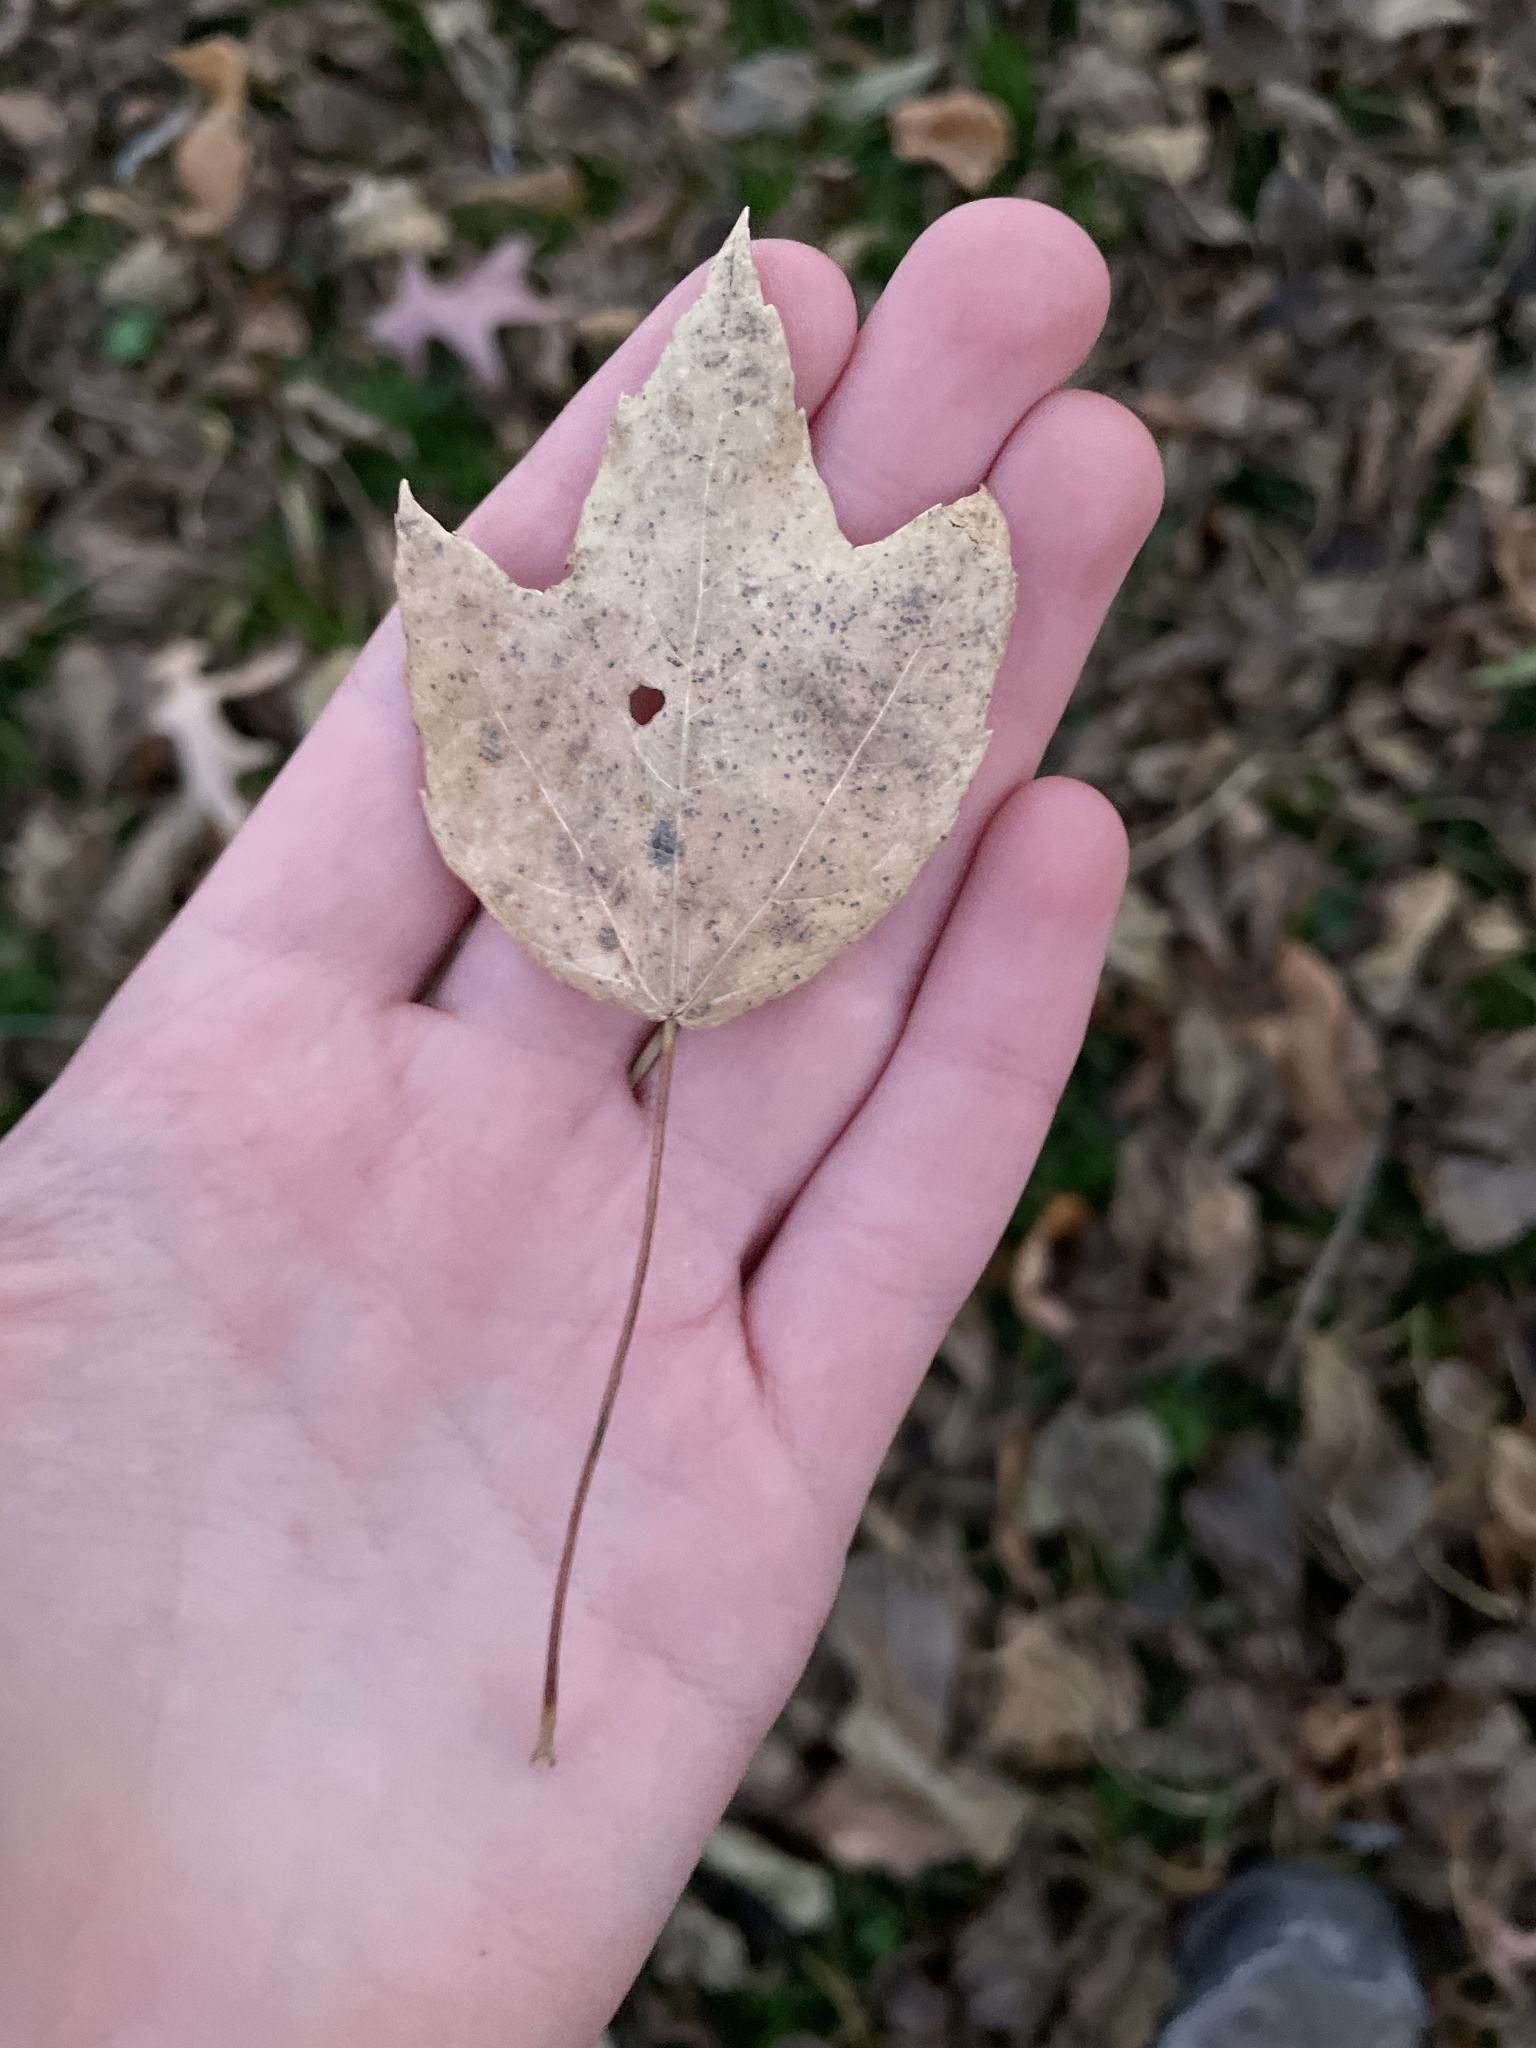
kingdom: Plantae
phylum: Tracheophyta
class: Magnoliopsida
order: Sapindales
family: Sapindaceae
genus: Acer
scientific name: Acer rubrum
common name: Red maple
